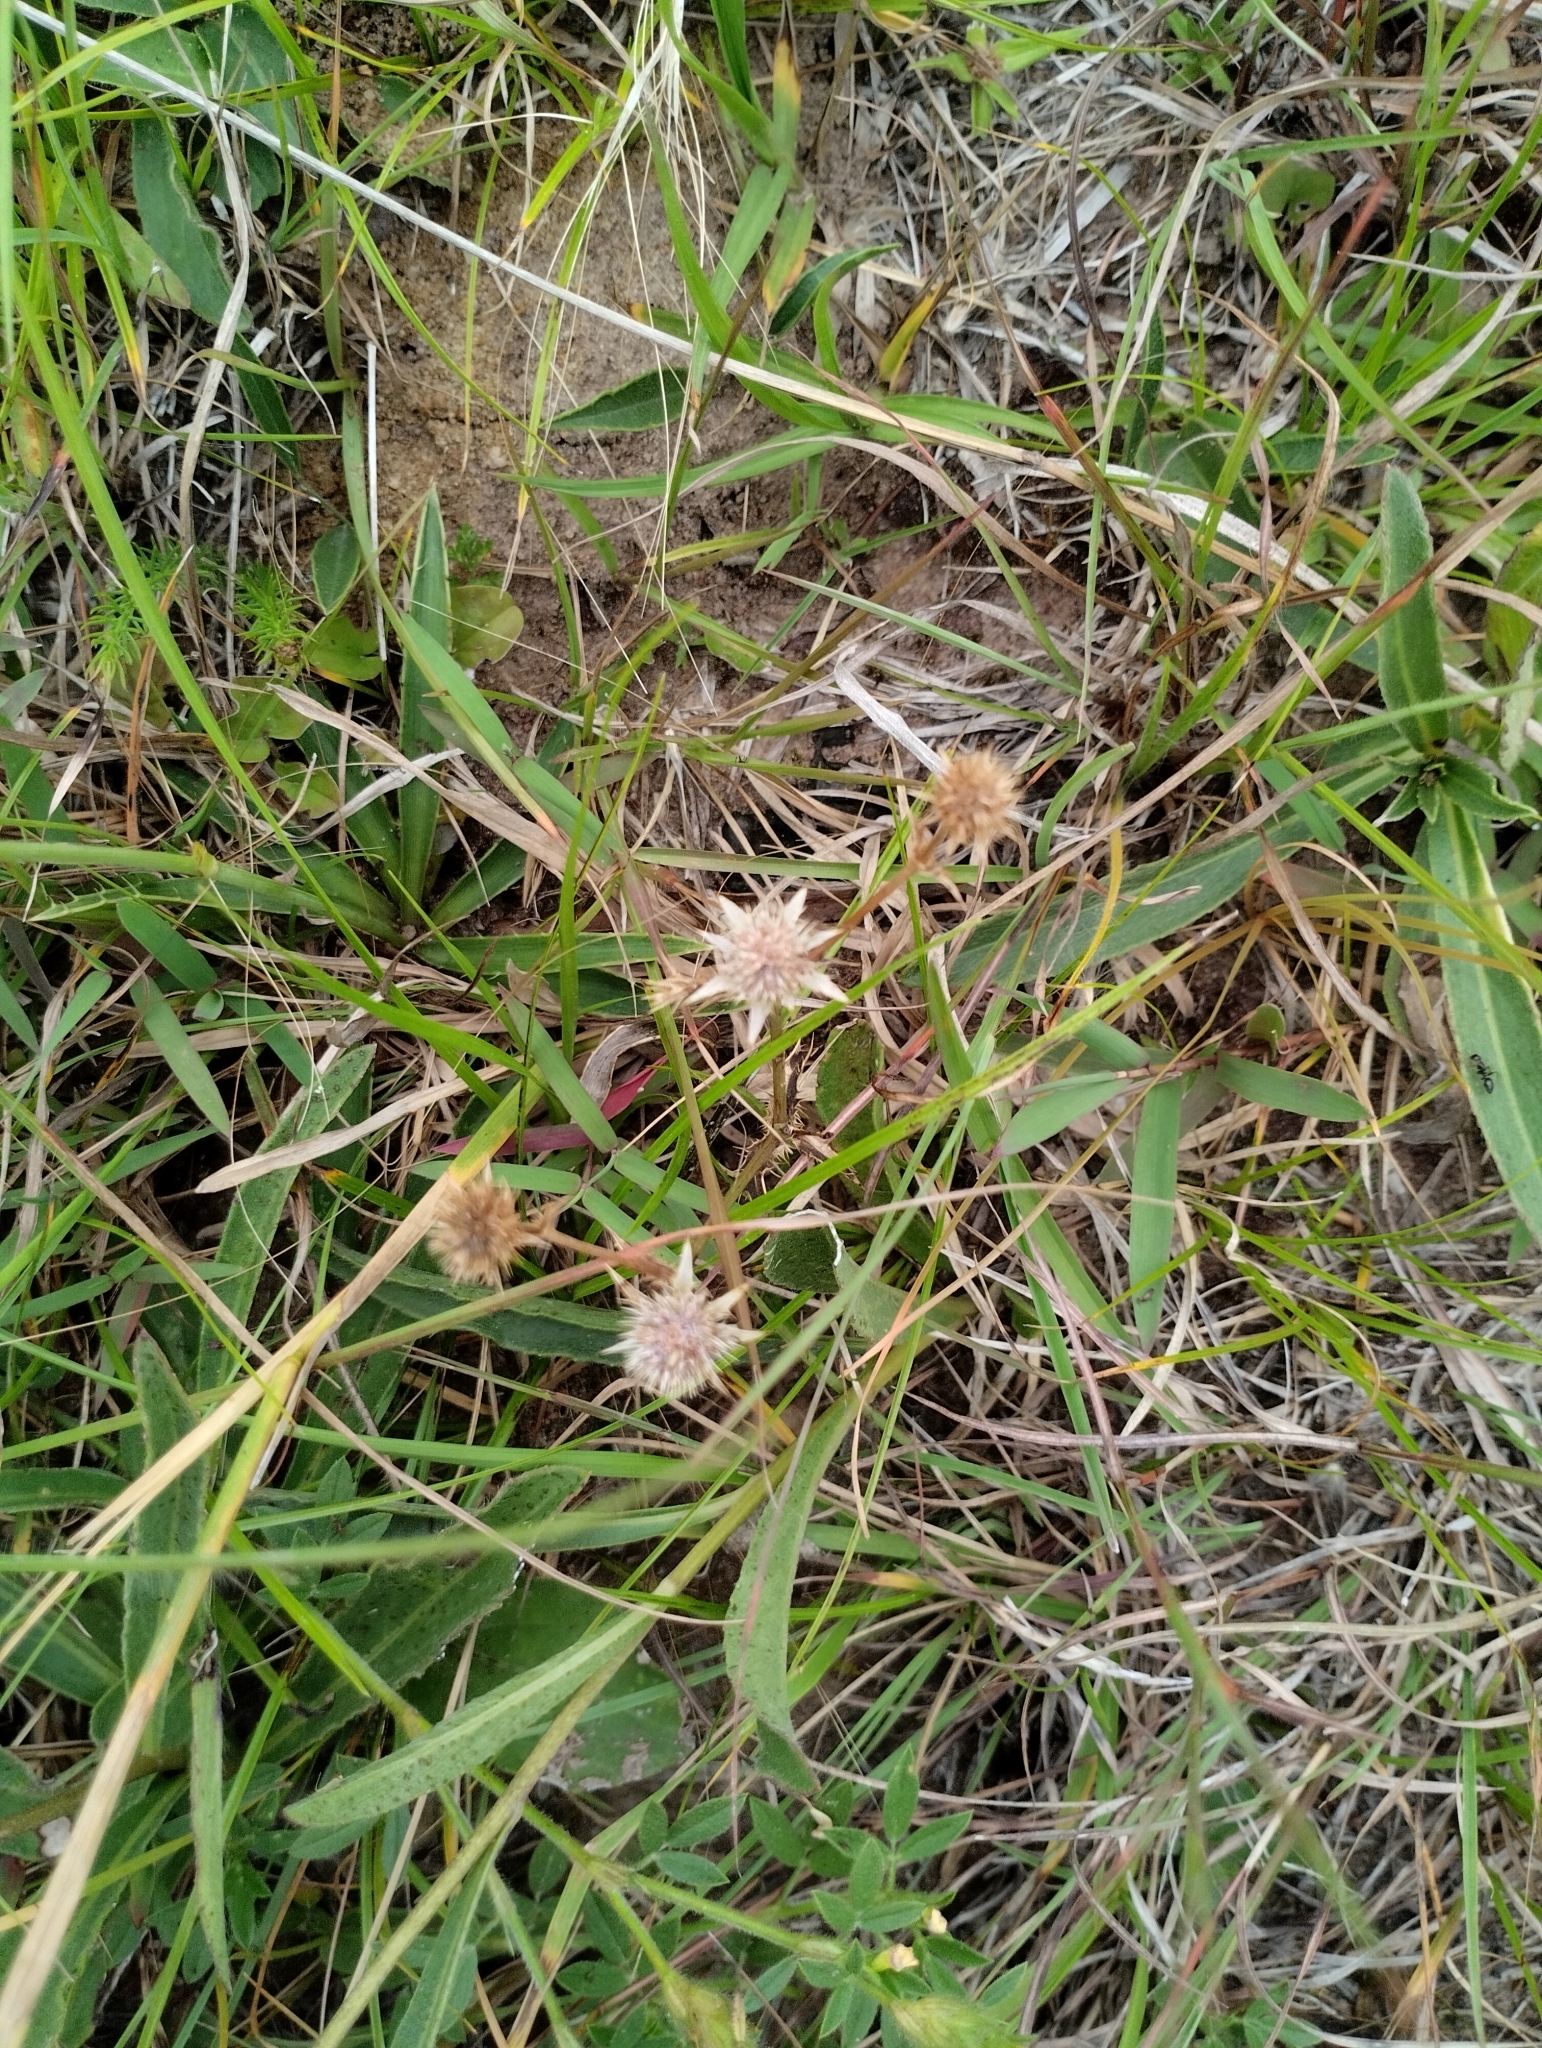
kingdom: Plantae
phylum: Tracheophyta
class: Magnoliopsida
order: Apiales
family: Apiaceae
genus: Eryngium
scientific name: Eryngium nudicaule
